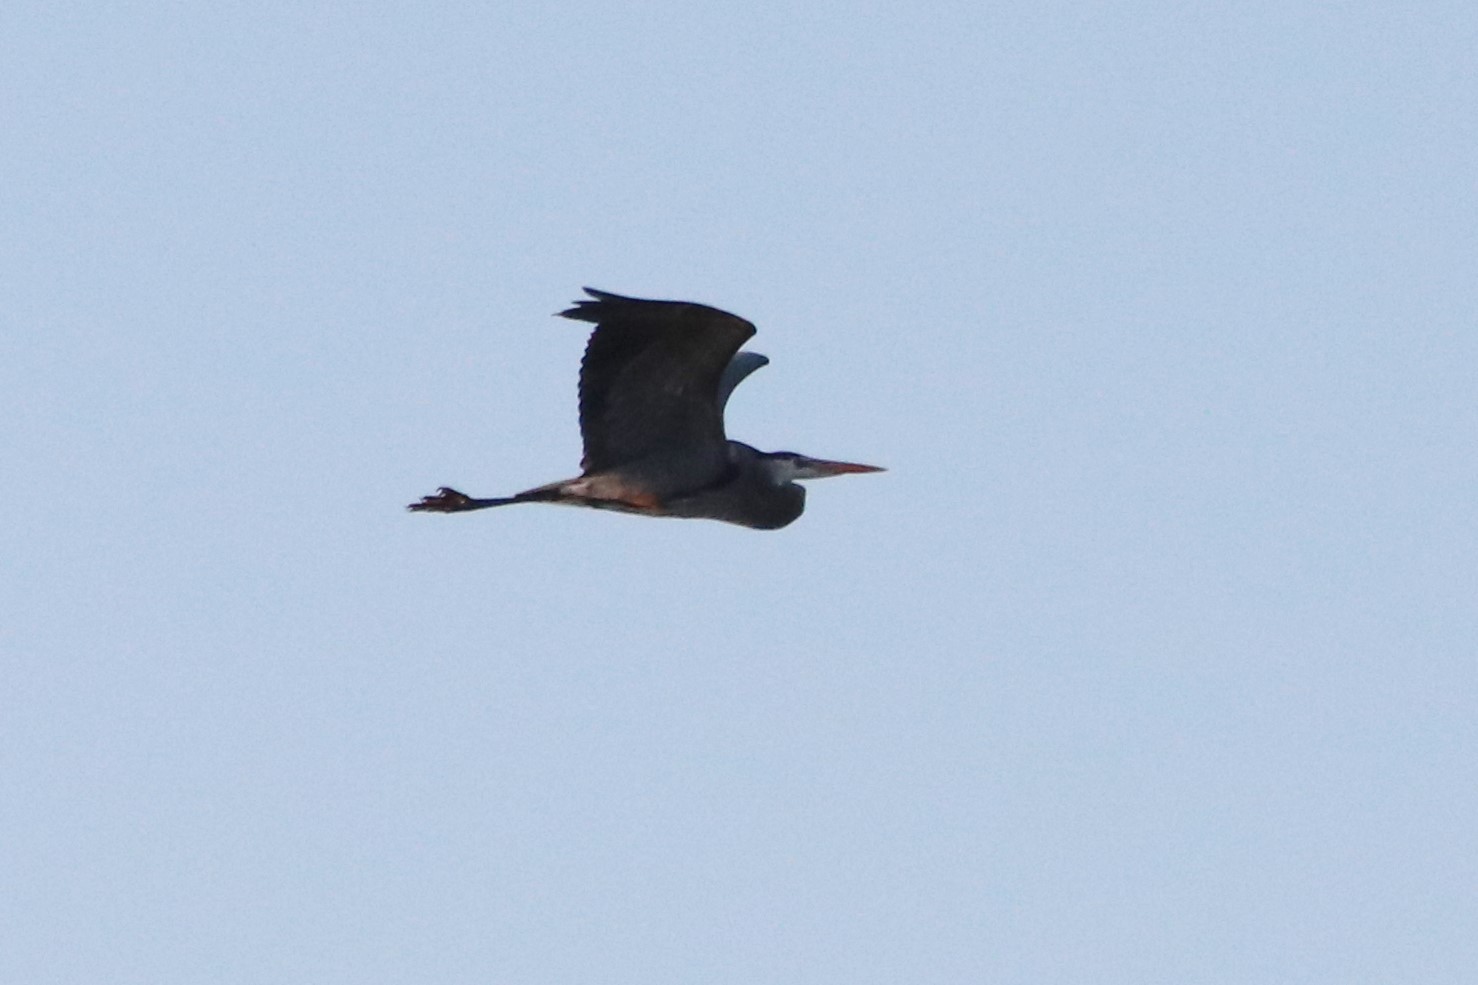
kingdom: Animalia
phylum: Chordata
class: Aves
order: Pelecaniformes
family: Ardeidae
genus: Ardea
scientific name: Ardea herodias
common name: Great blue heron
